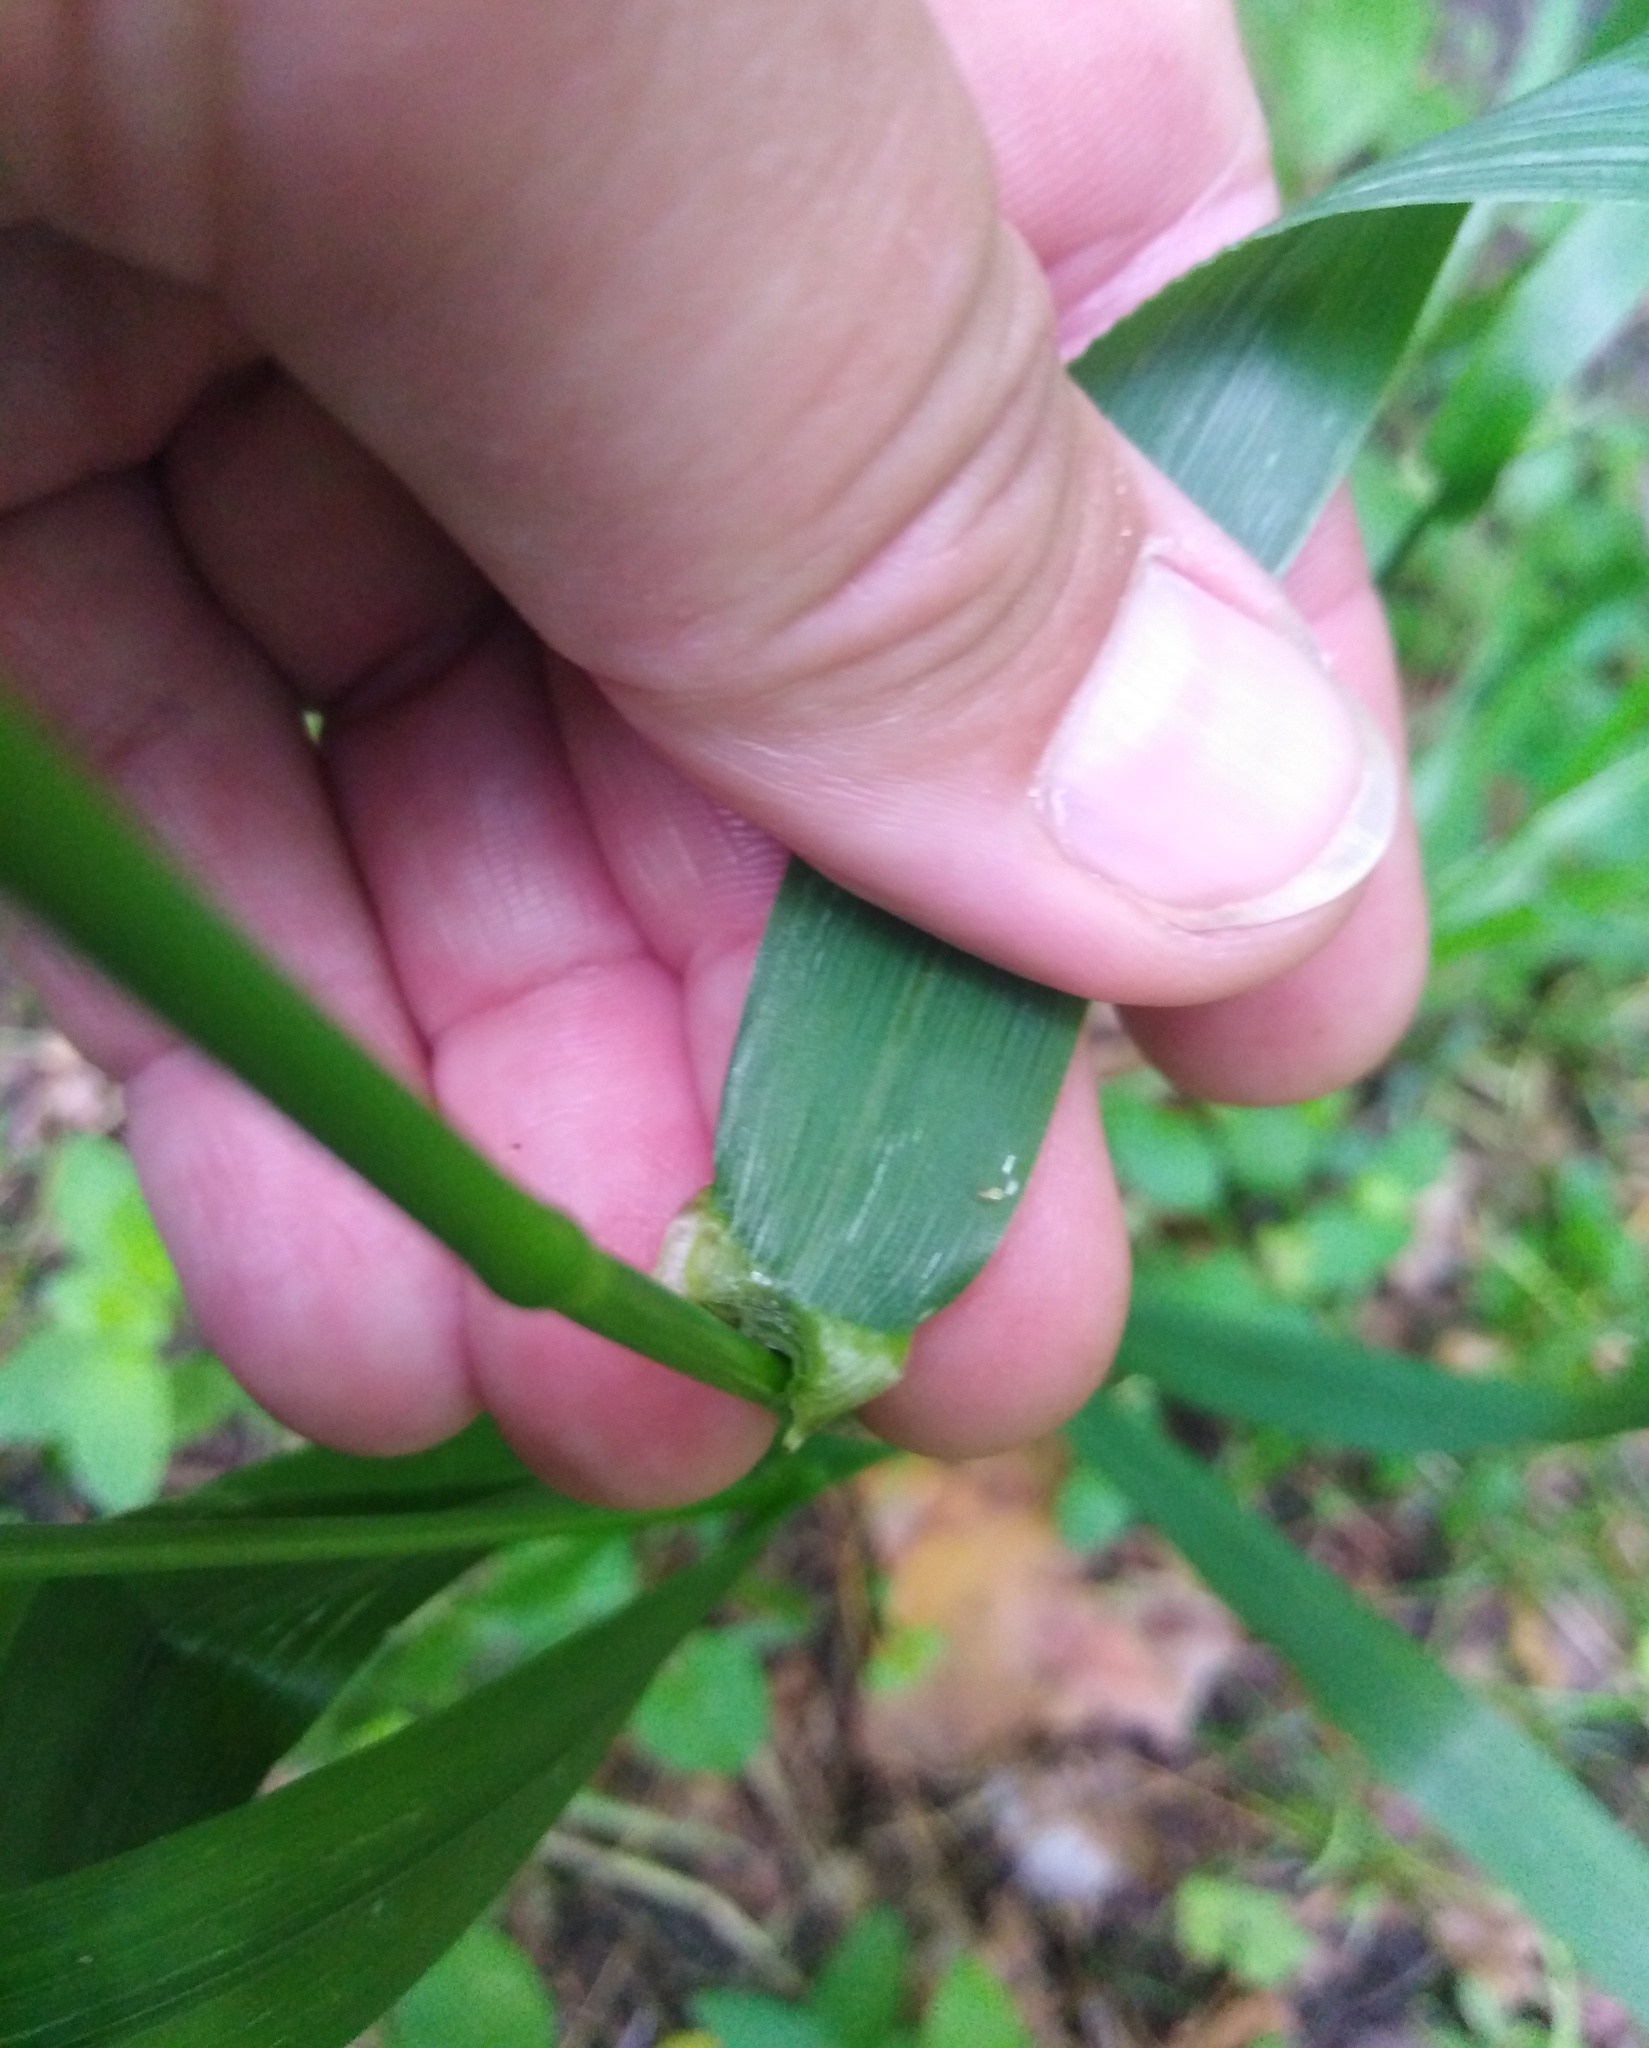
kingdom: Plantae
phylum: Tracheophyta
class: Liliopsida
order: Poales
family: Poaceae
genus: Lolium
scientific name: Lolium giganteum
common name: Giant fescue
